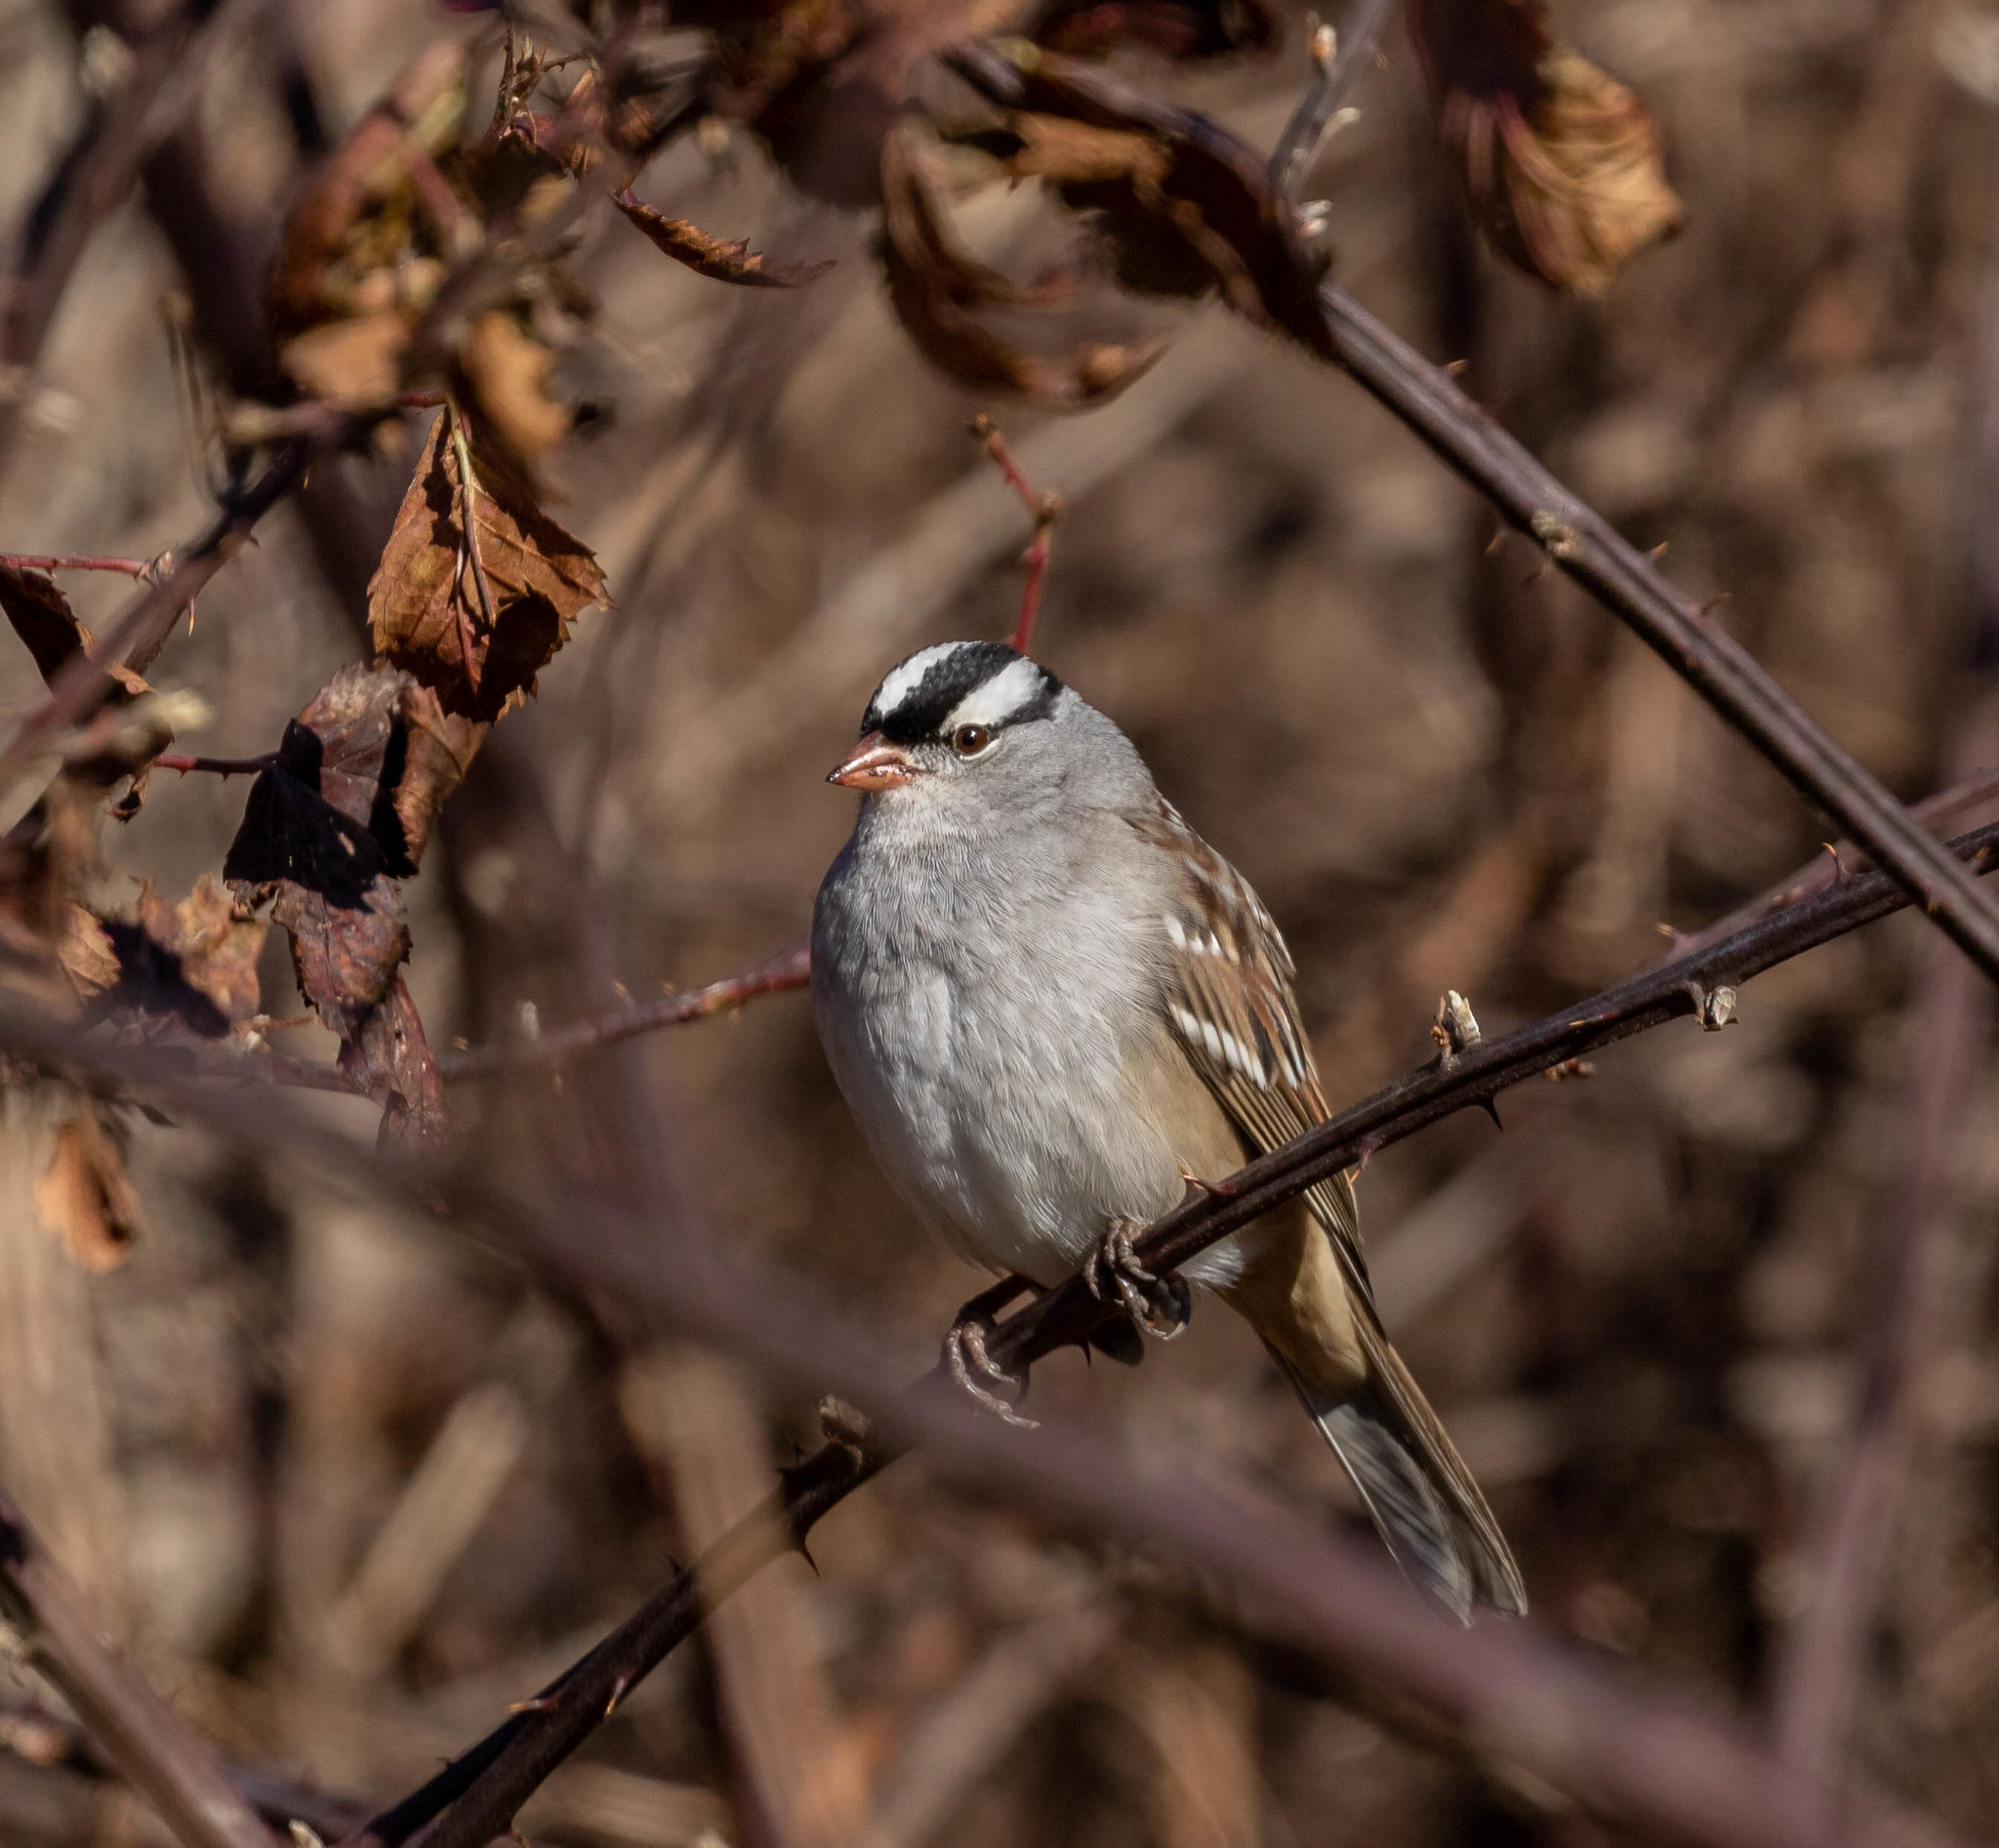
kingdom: Animalia
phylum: Chordata
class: Aves
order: Passeriformes
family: Passerellidae
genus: Zonotrichia
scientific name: Zonotrichia leucophrys
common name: White-crowned sparrow
